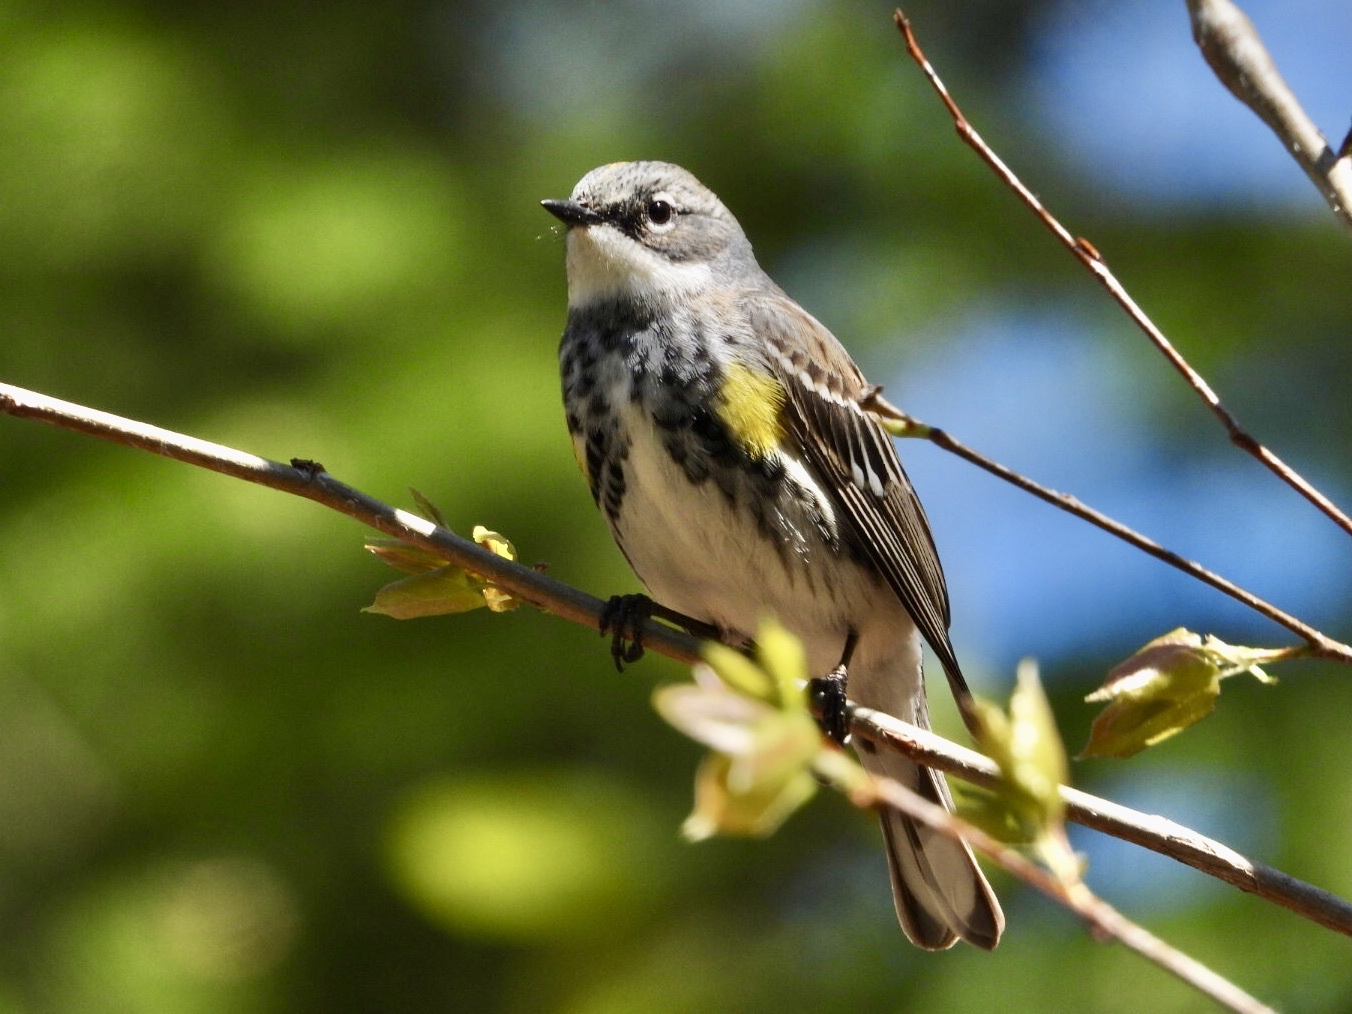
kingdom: Animalia
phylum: Chordata
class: Aves
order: Passeriformes
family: Parulidae
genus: Setophaga
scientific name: Setophaga coronata
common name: Myrtle warbler
